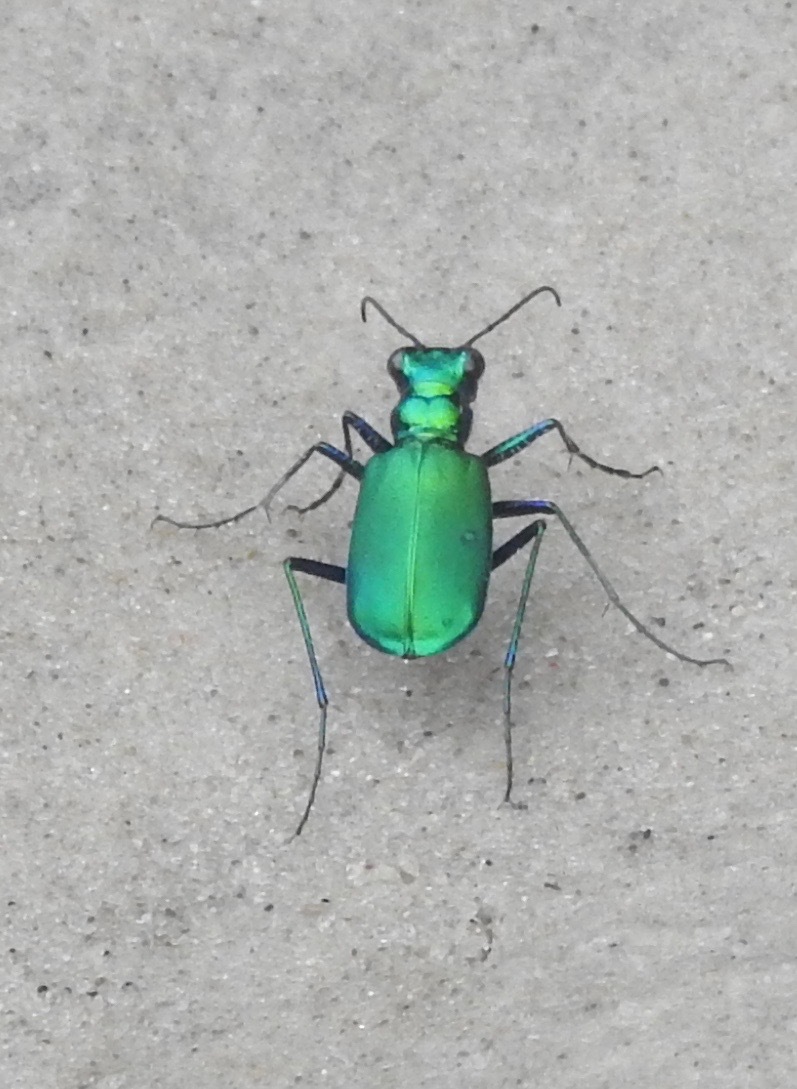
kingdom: Animalia
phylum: Arthropoda
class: Insecta
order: Coleoptera
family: Carabidae
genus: Cicindela
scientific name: Cicindela sexguttata
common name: Six-spotted tiger beetle
